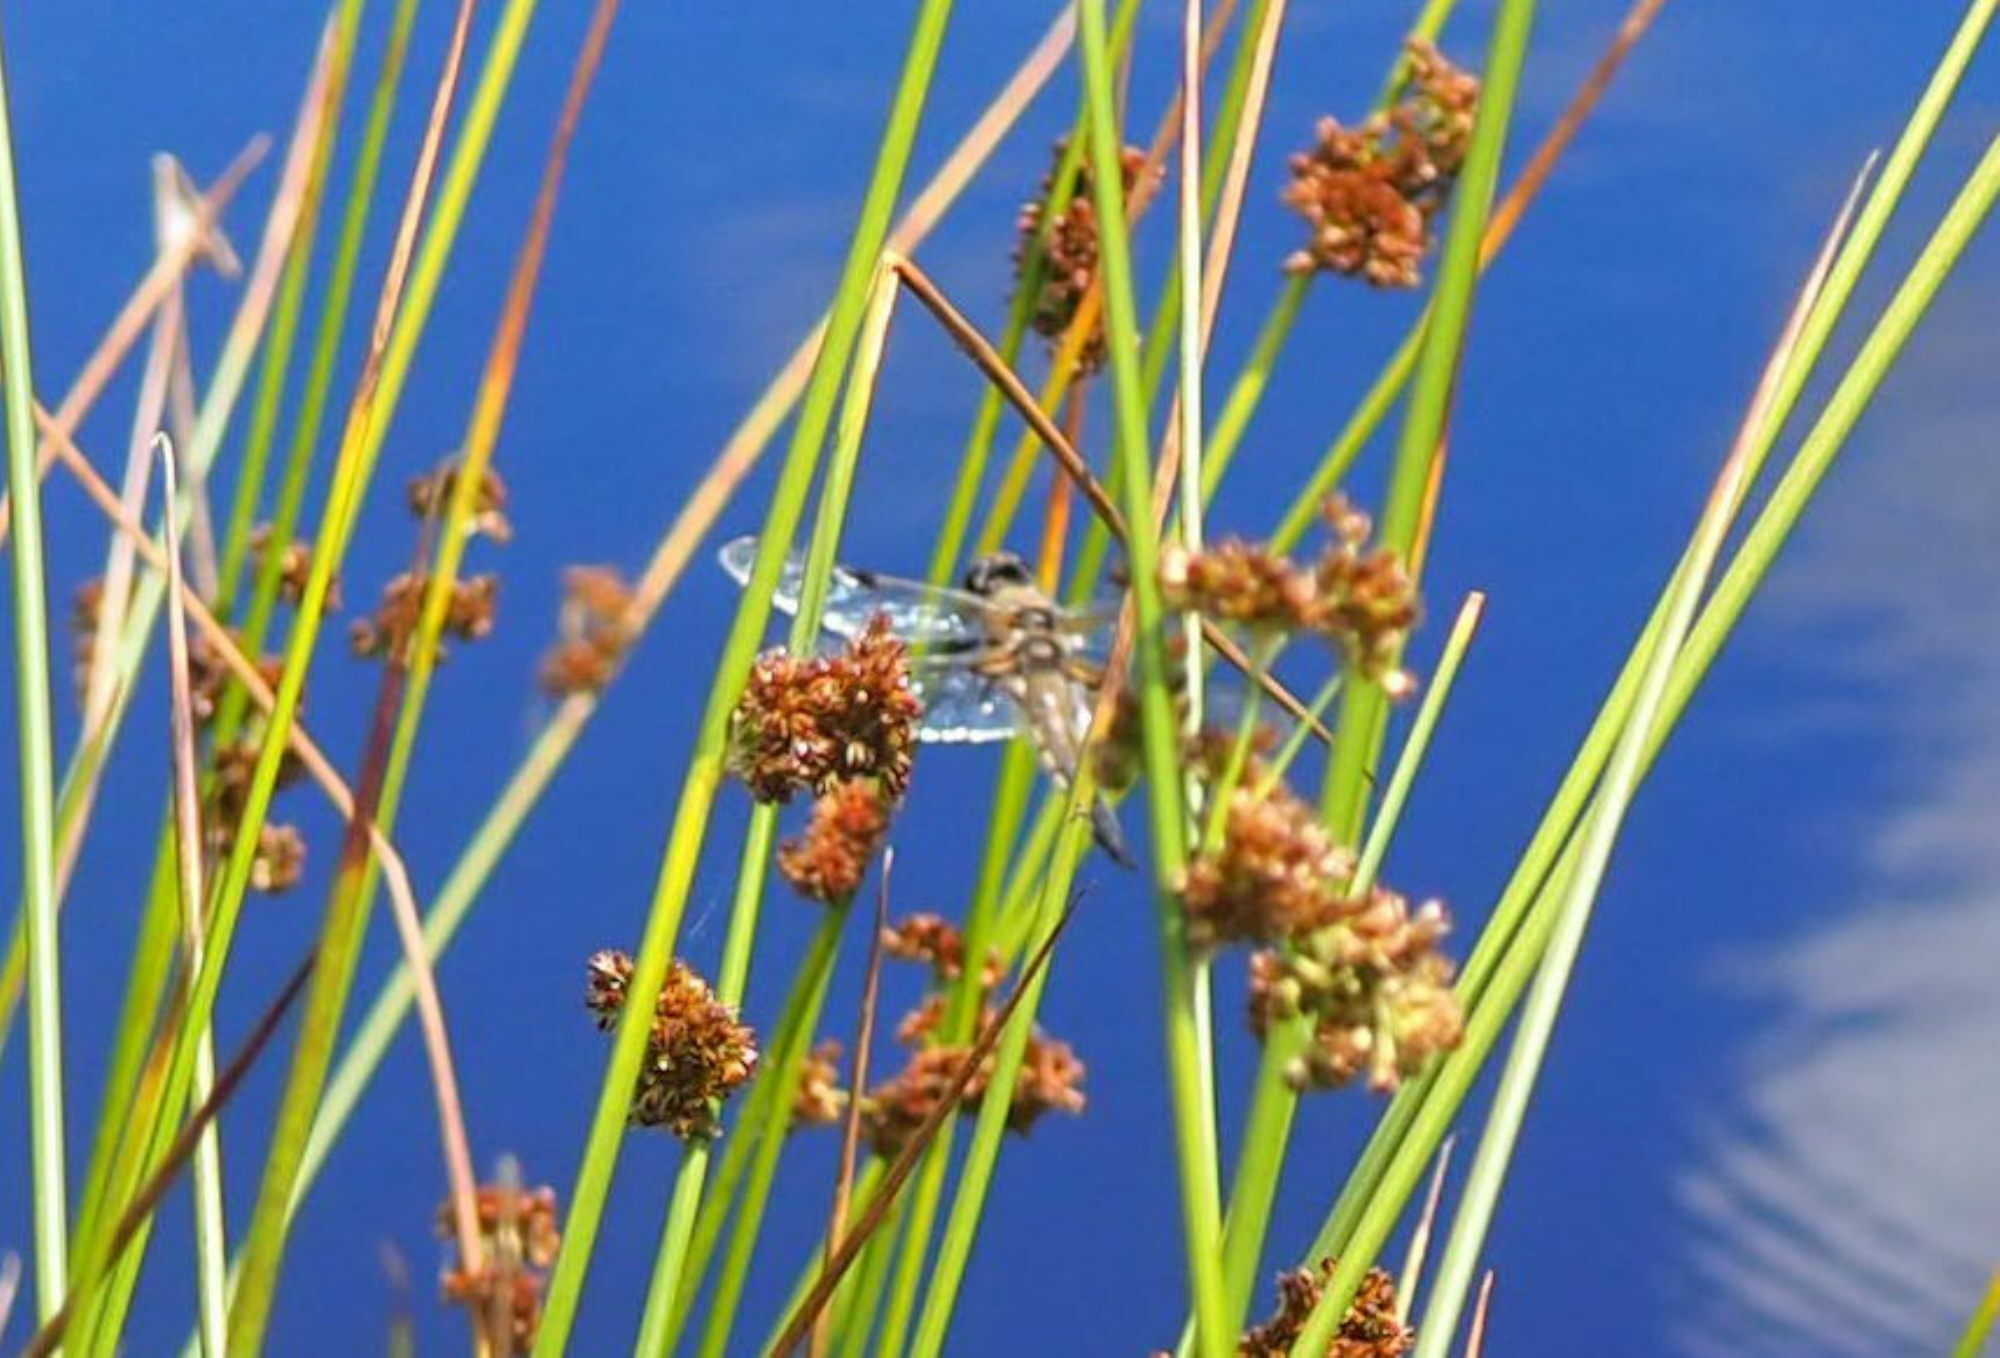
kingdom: Animalia
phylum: Arthropoda
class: Insecta
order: Odonata
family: Libellulidae
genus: Libellula
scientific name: Libellula quadrimaculata
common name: Four-spotted chaser
